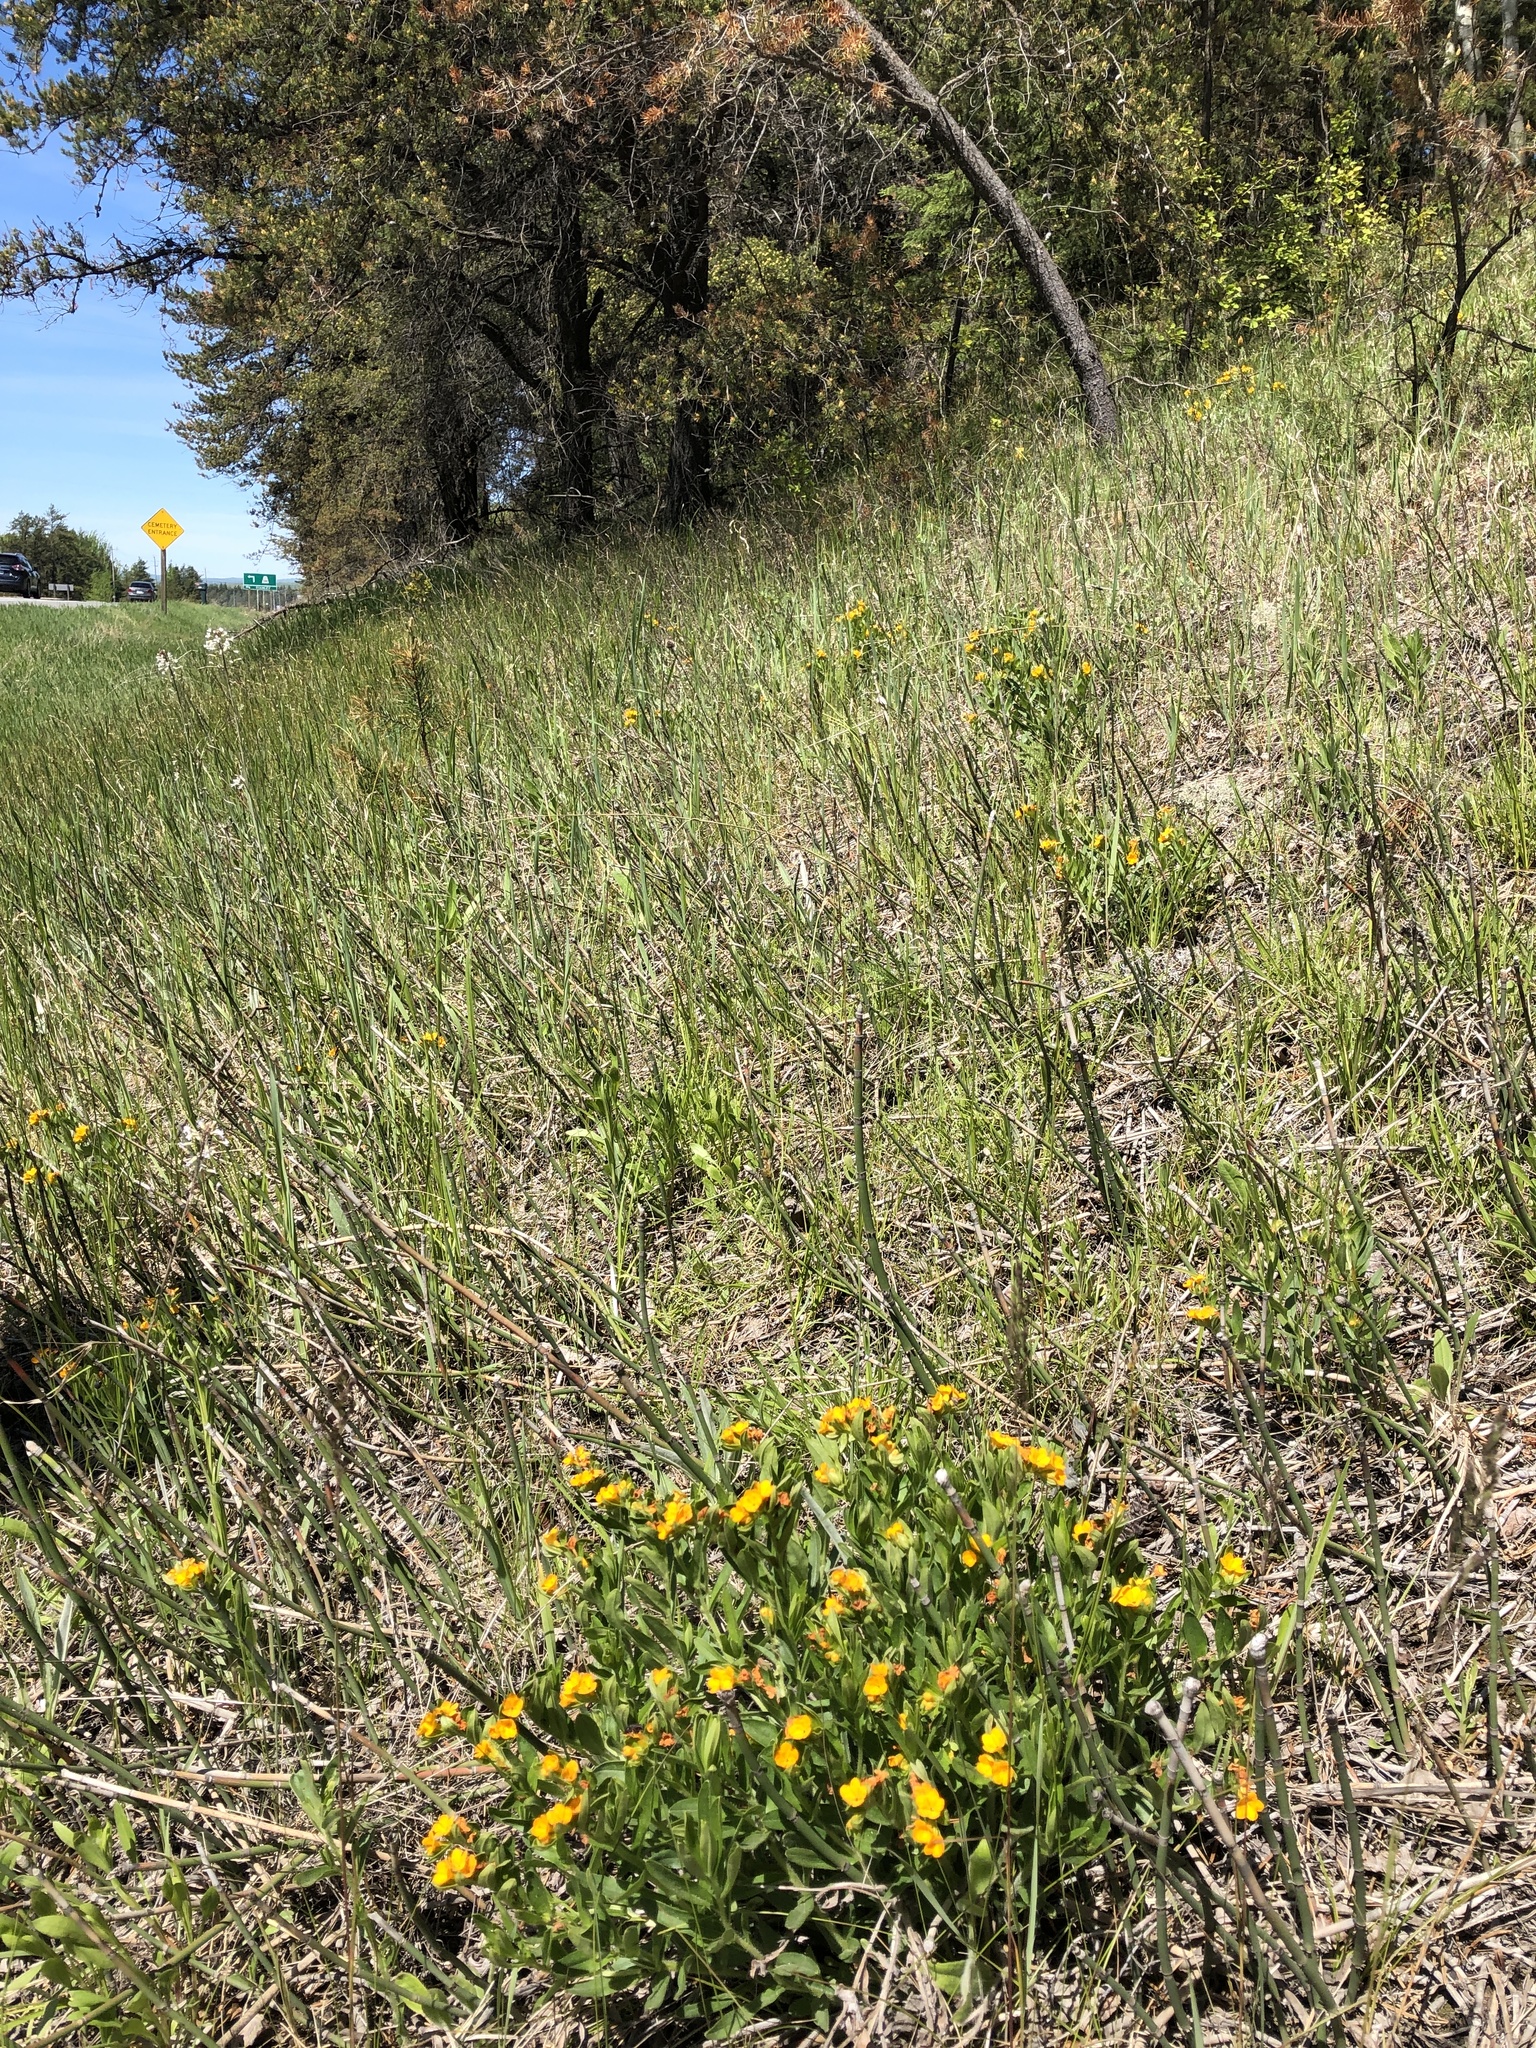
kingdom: Plantae
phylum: Tracheophyta
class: Magnoliopsida
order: Boraginales
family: Boraginaceae
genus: Lithospermum
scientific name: Lithospermum canescens
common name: Hoary puccoon
